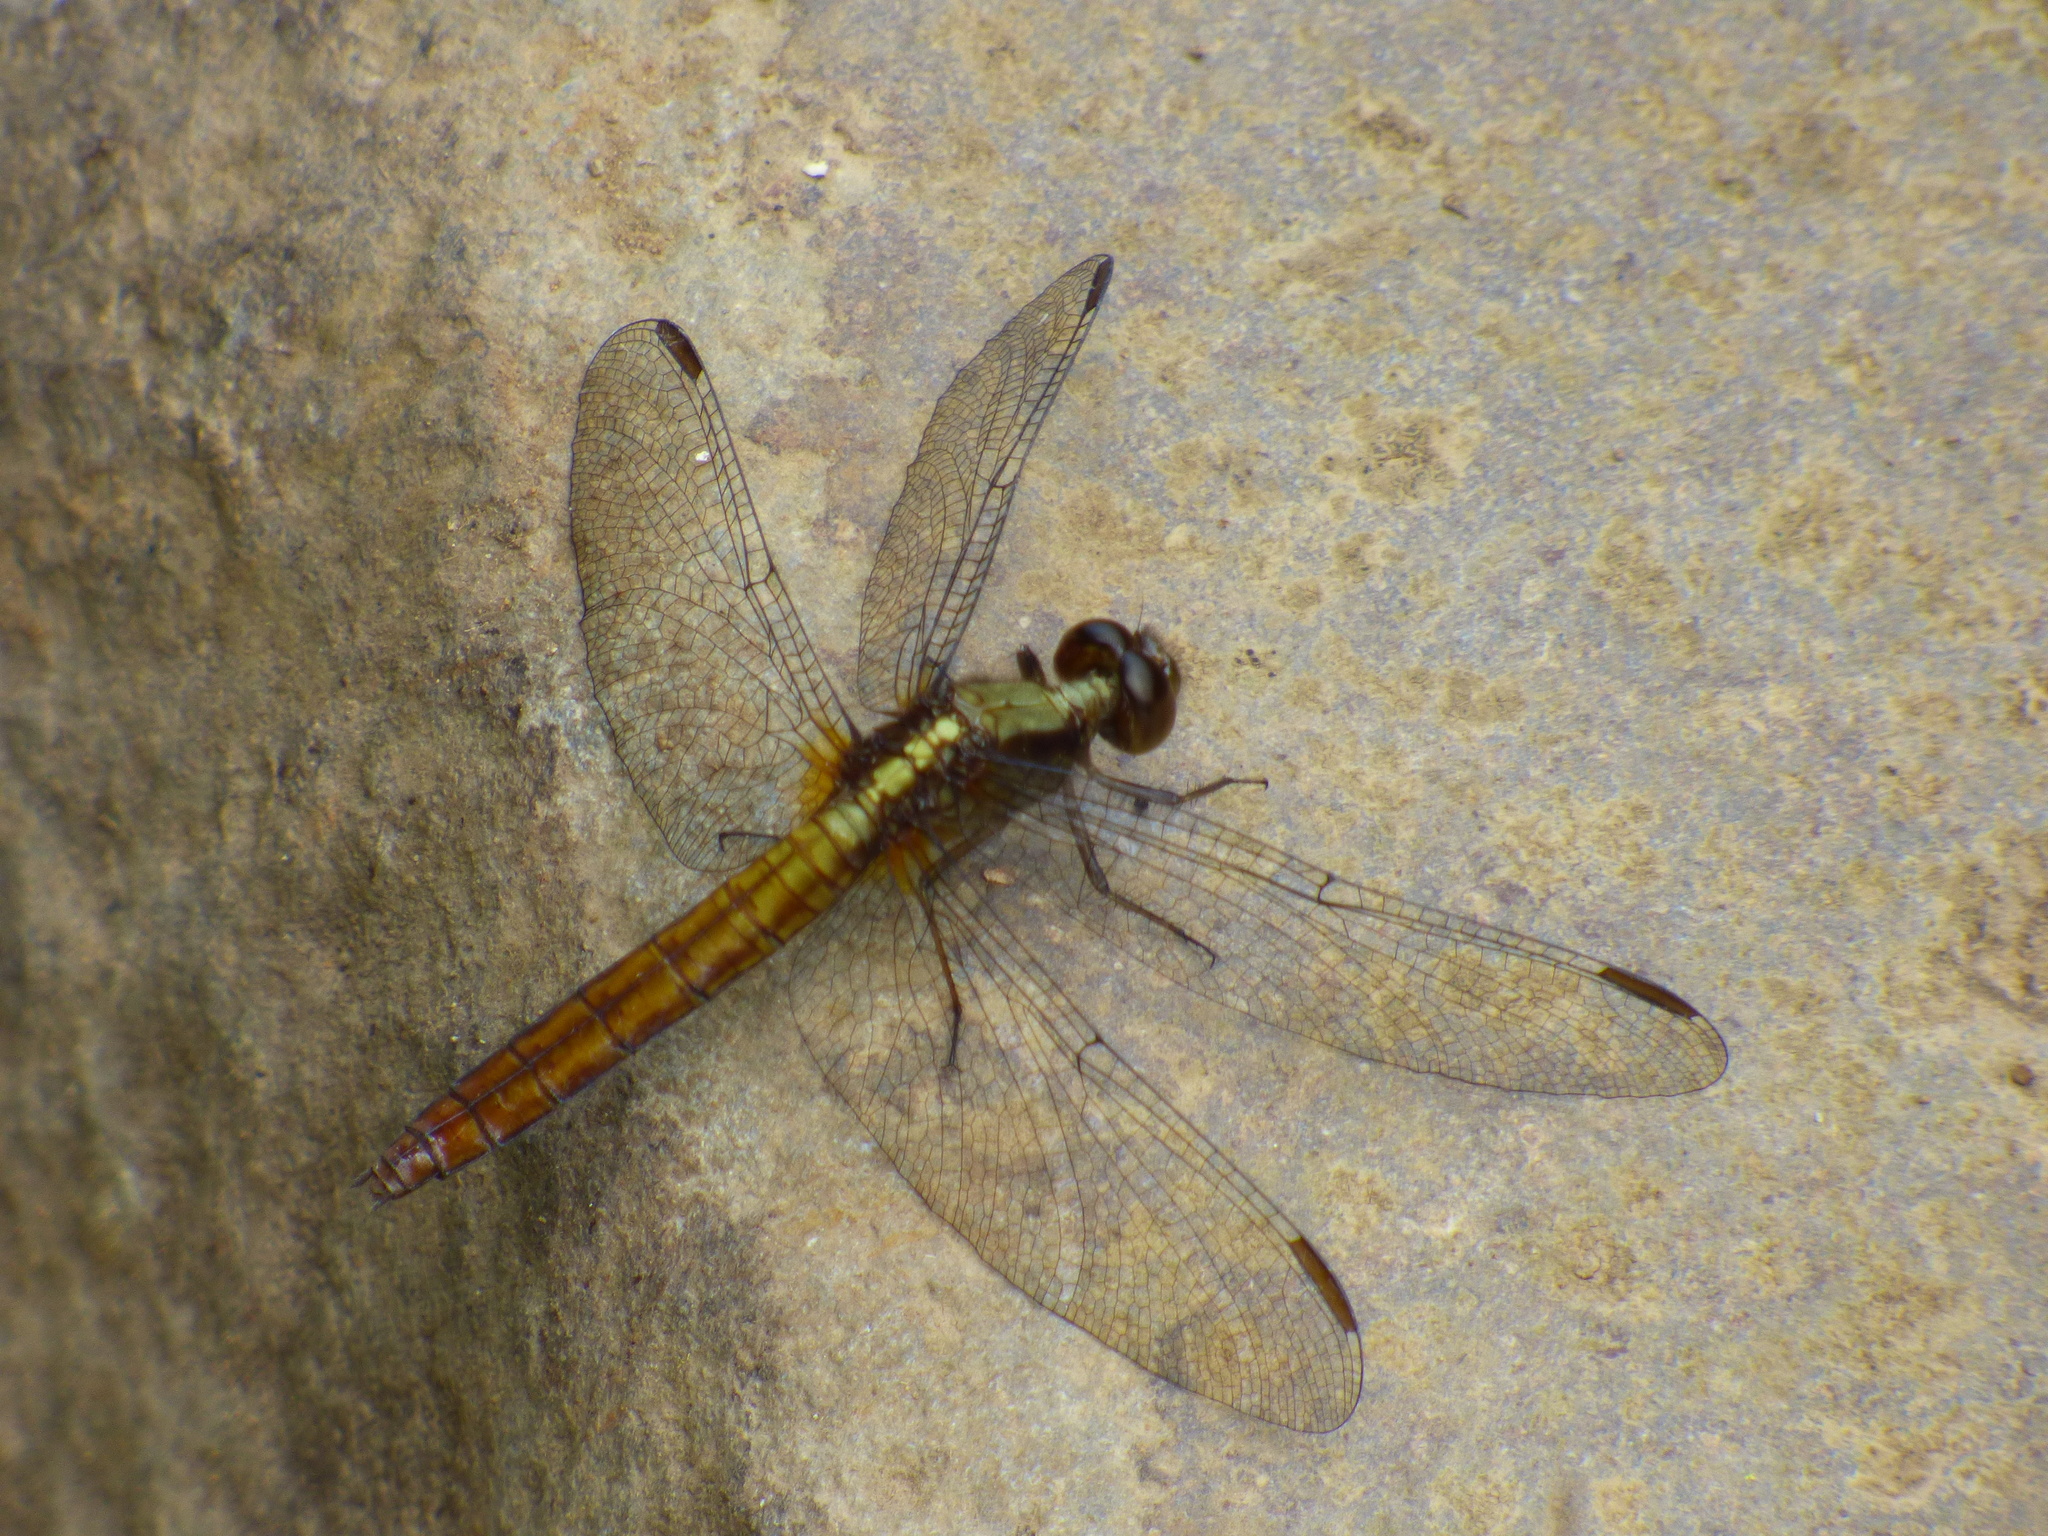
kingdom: Animalia
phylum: Arthropoda
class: Insecta
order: Odonata
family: Libellulidae
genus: Erythemis
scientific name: Erythemis peruviana
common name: Flame-tailed pondhawk
